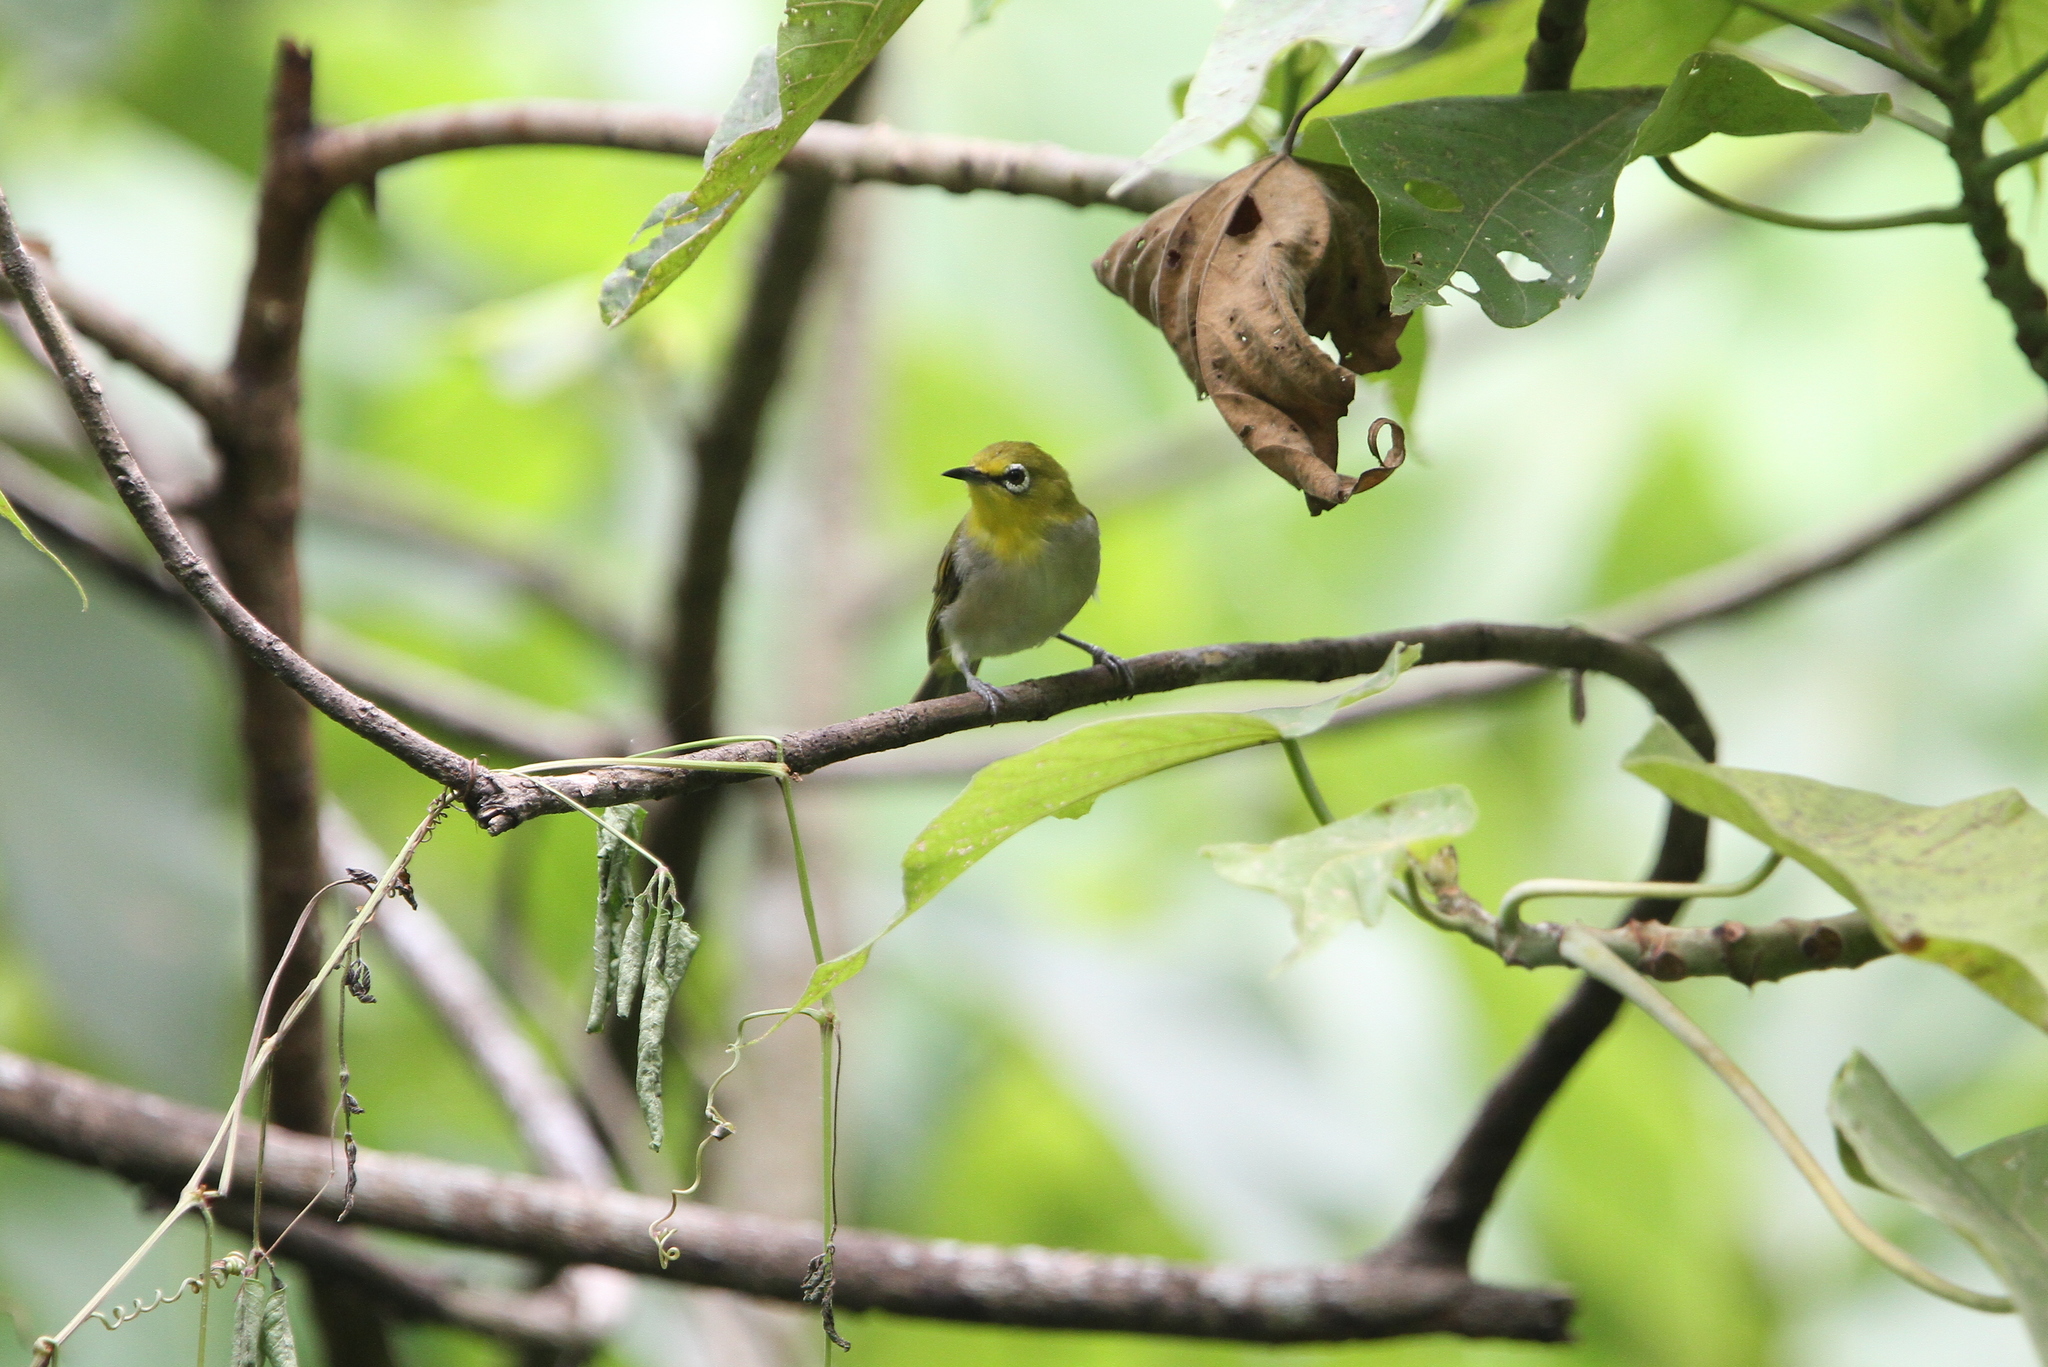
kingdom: Animalia
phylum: Chordata
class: Aves
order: Passeriformes
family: Zosteropidae
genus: Zosterops
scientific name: Zosterops simplex
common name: Swinhoe's white-eye
